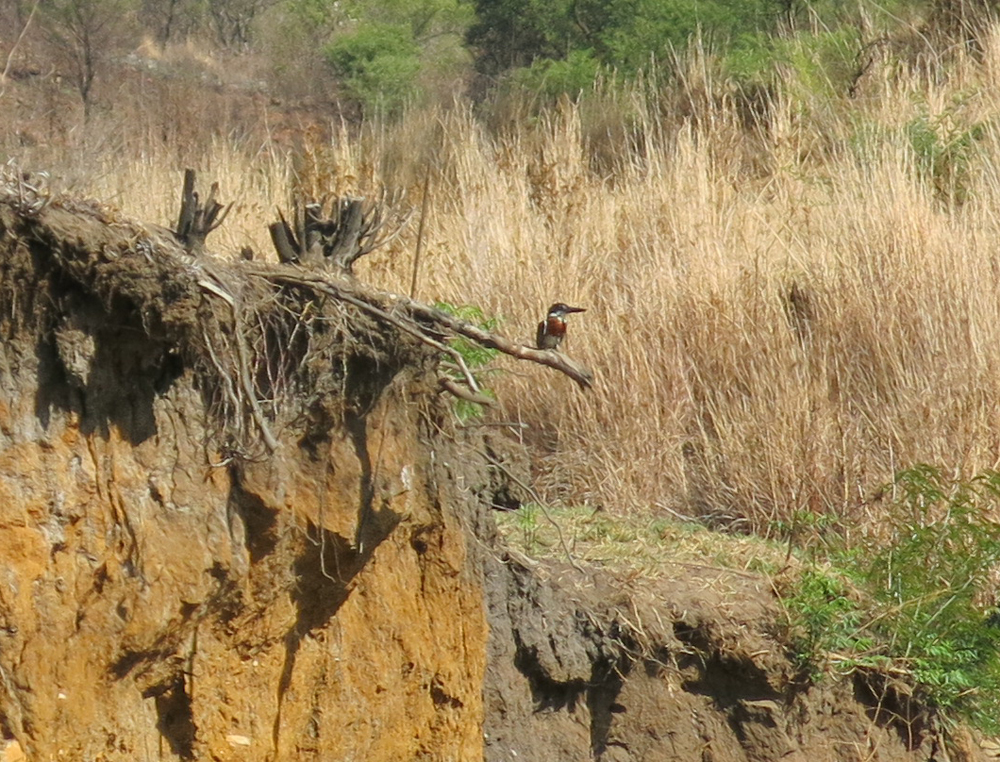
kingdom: Animalia
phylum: Chordata
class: Aves
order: Coraciiformes
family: Alcedinidae
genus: Megaceryle
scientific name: Megaceryle maxima
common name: Giant kingfisher
